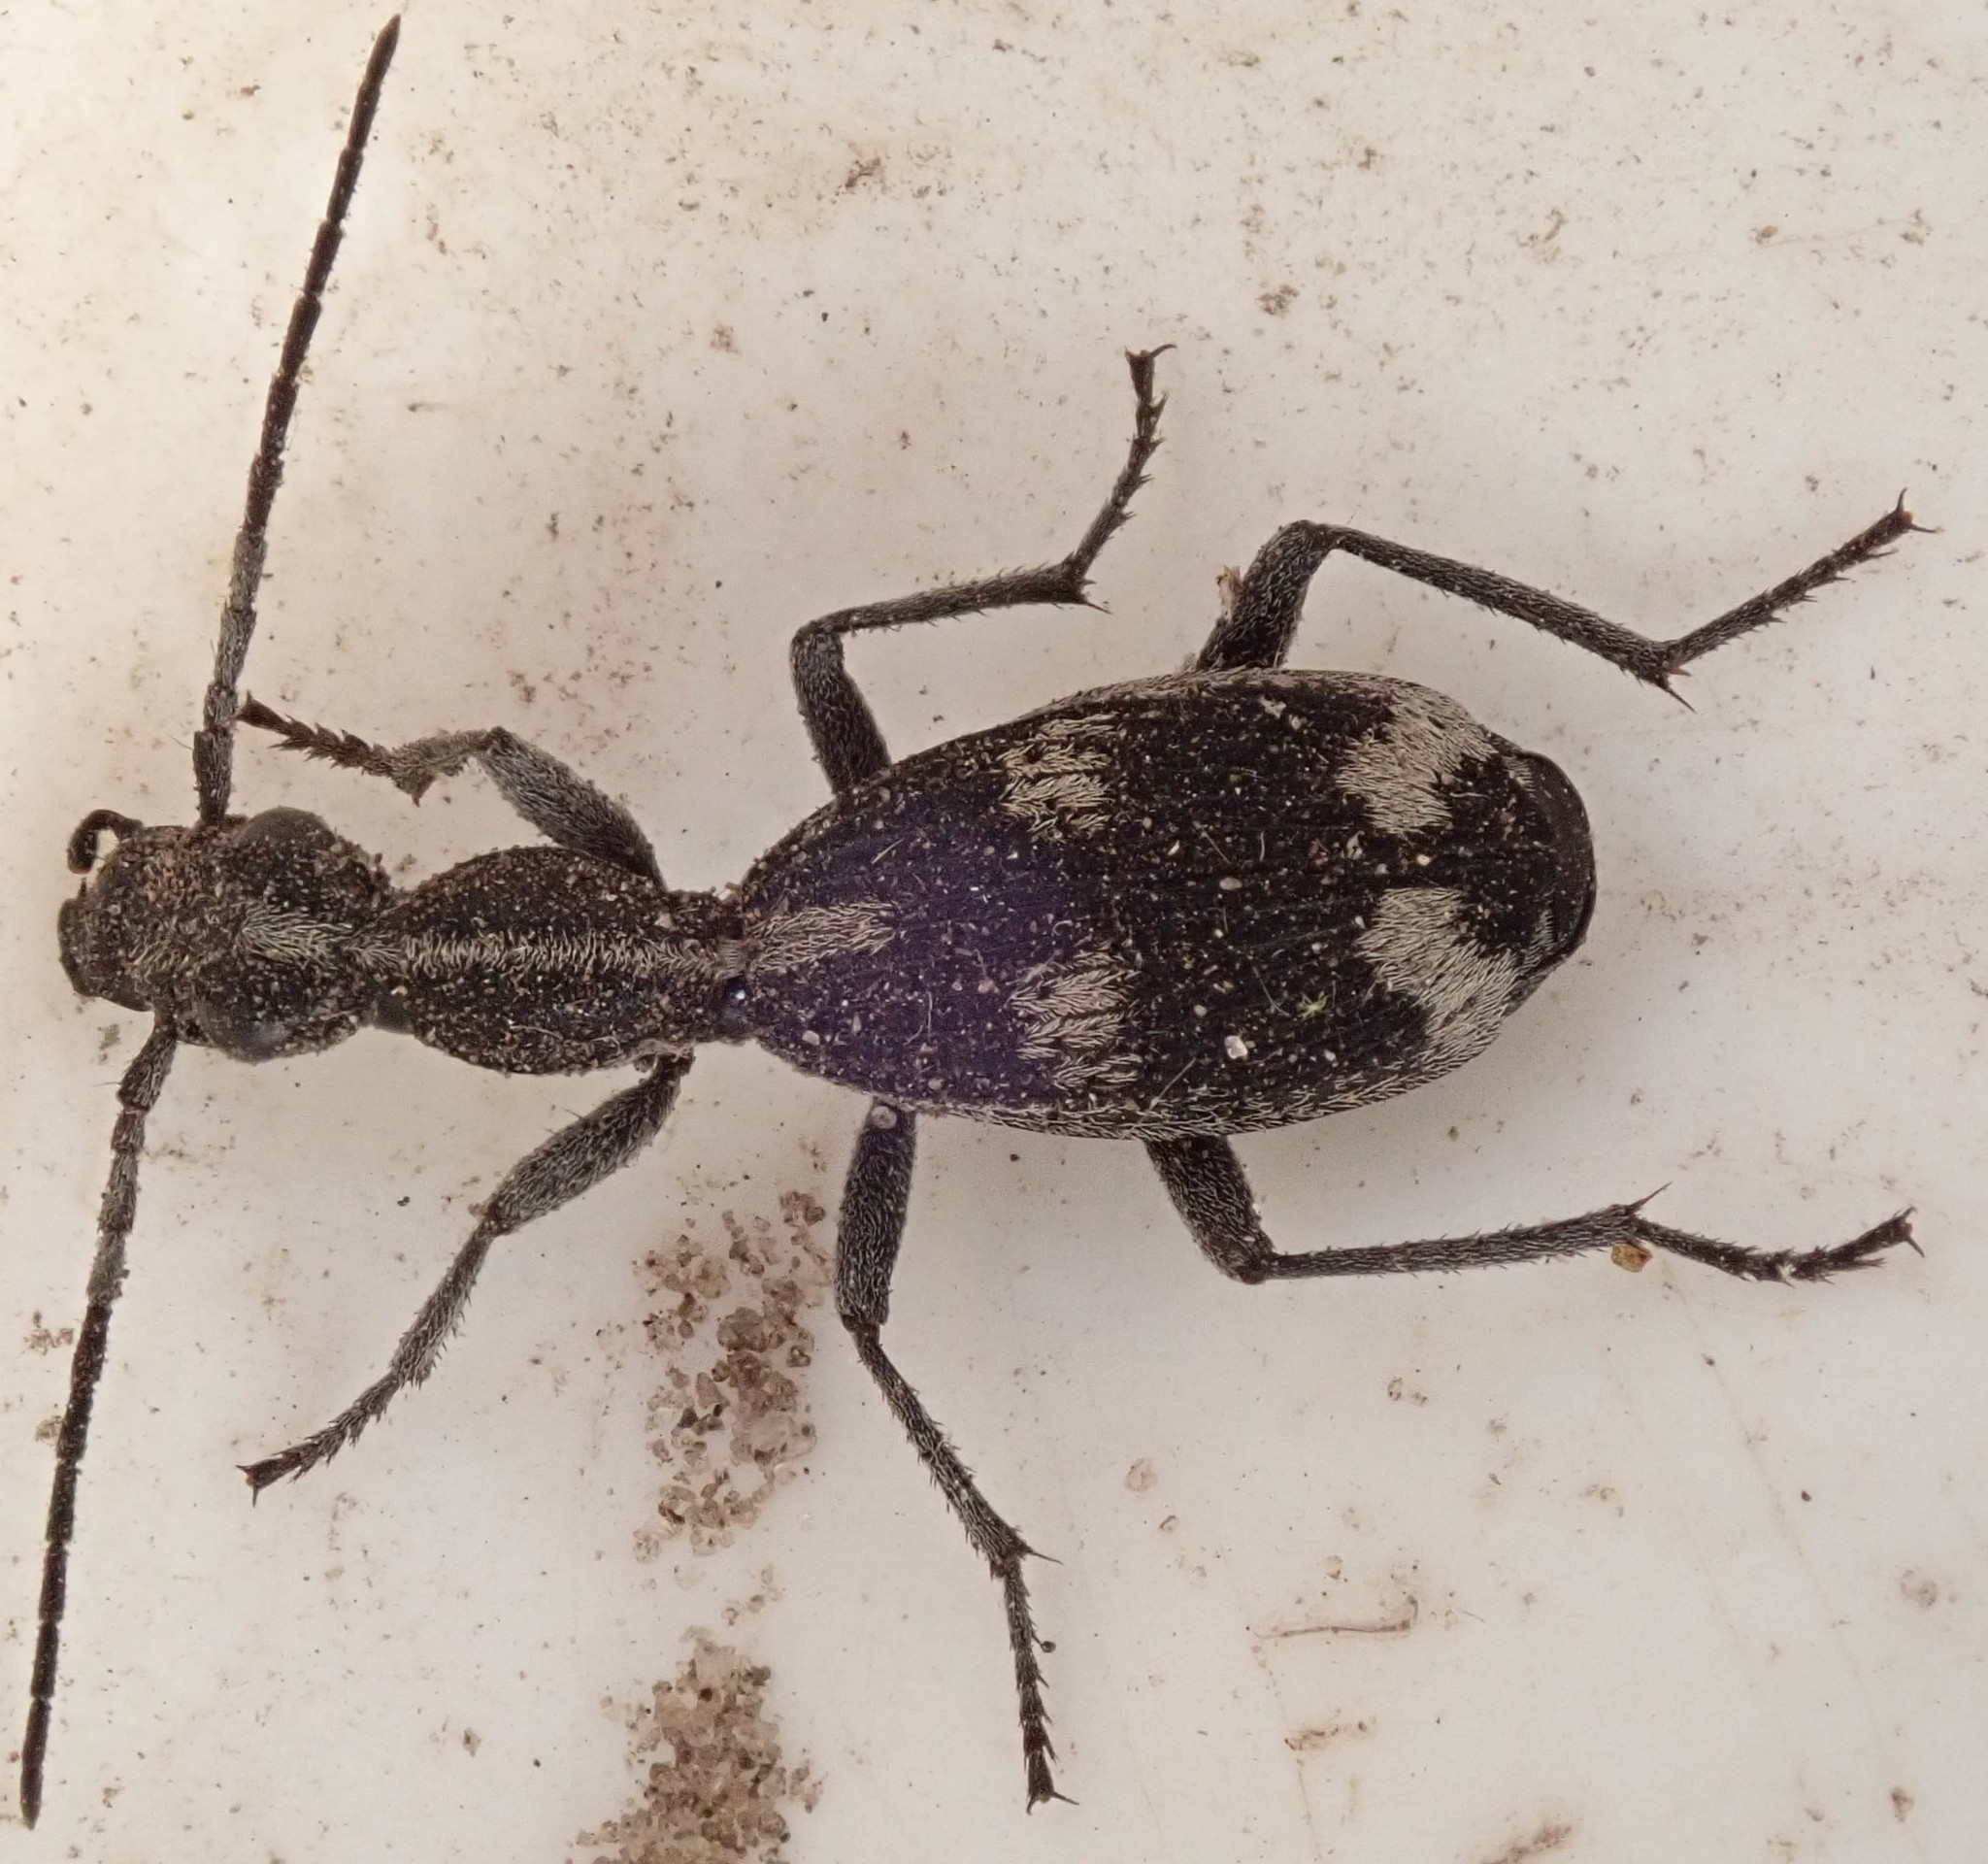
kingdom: Animalia
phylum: Arthropoda
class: Insecta
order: Coleoptera
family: Carabidae
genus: Cypholoba
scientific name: Cypholoba tenuicollis
